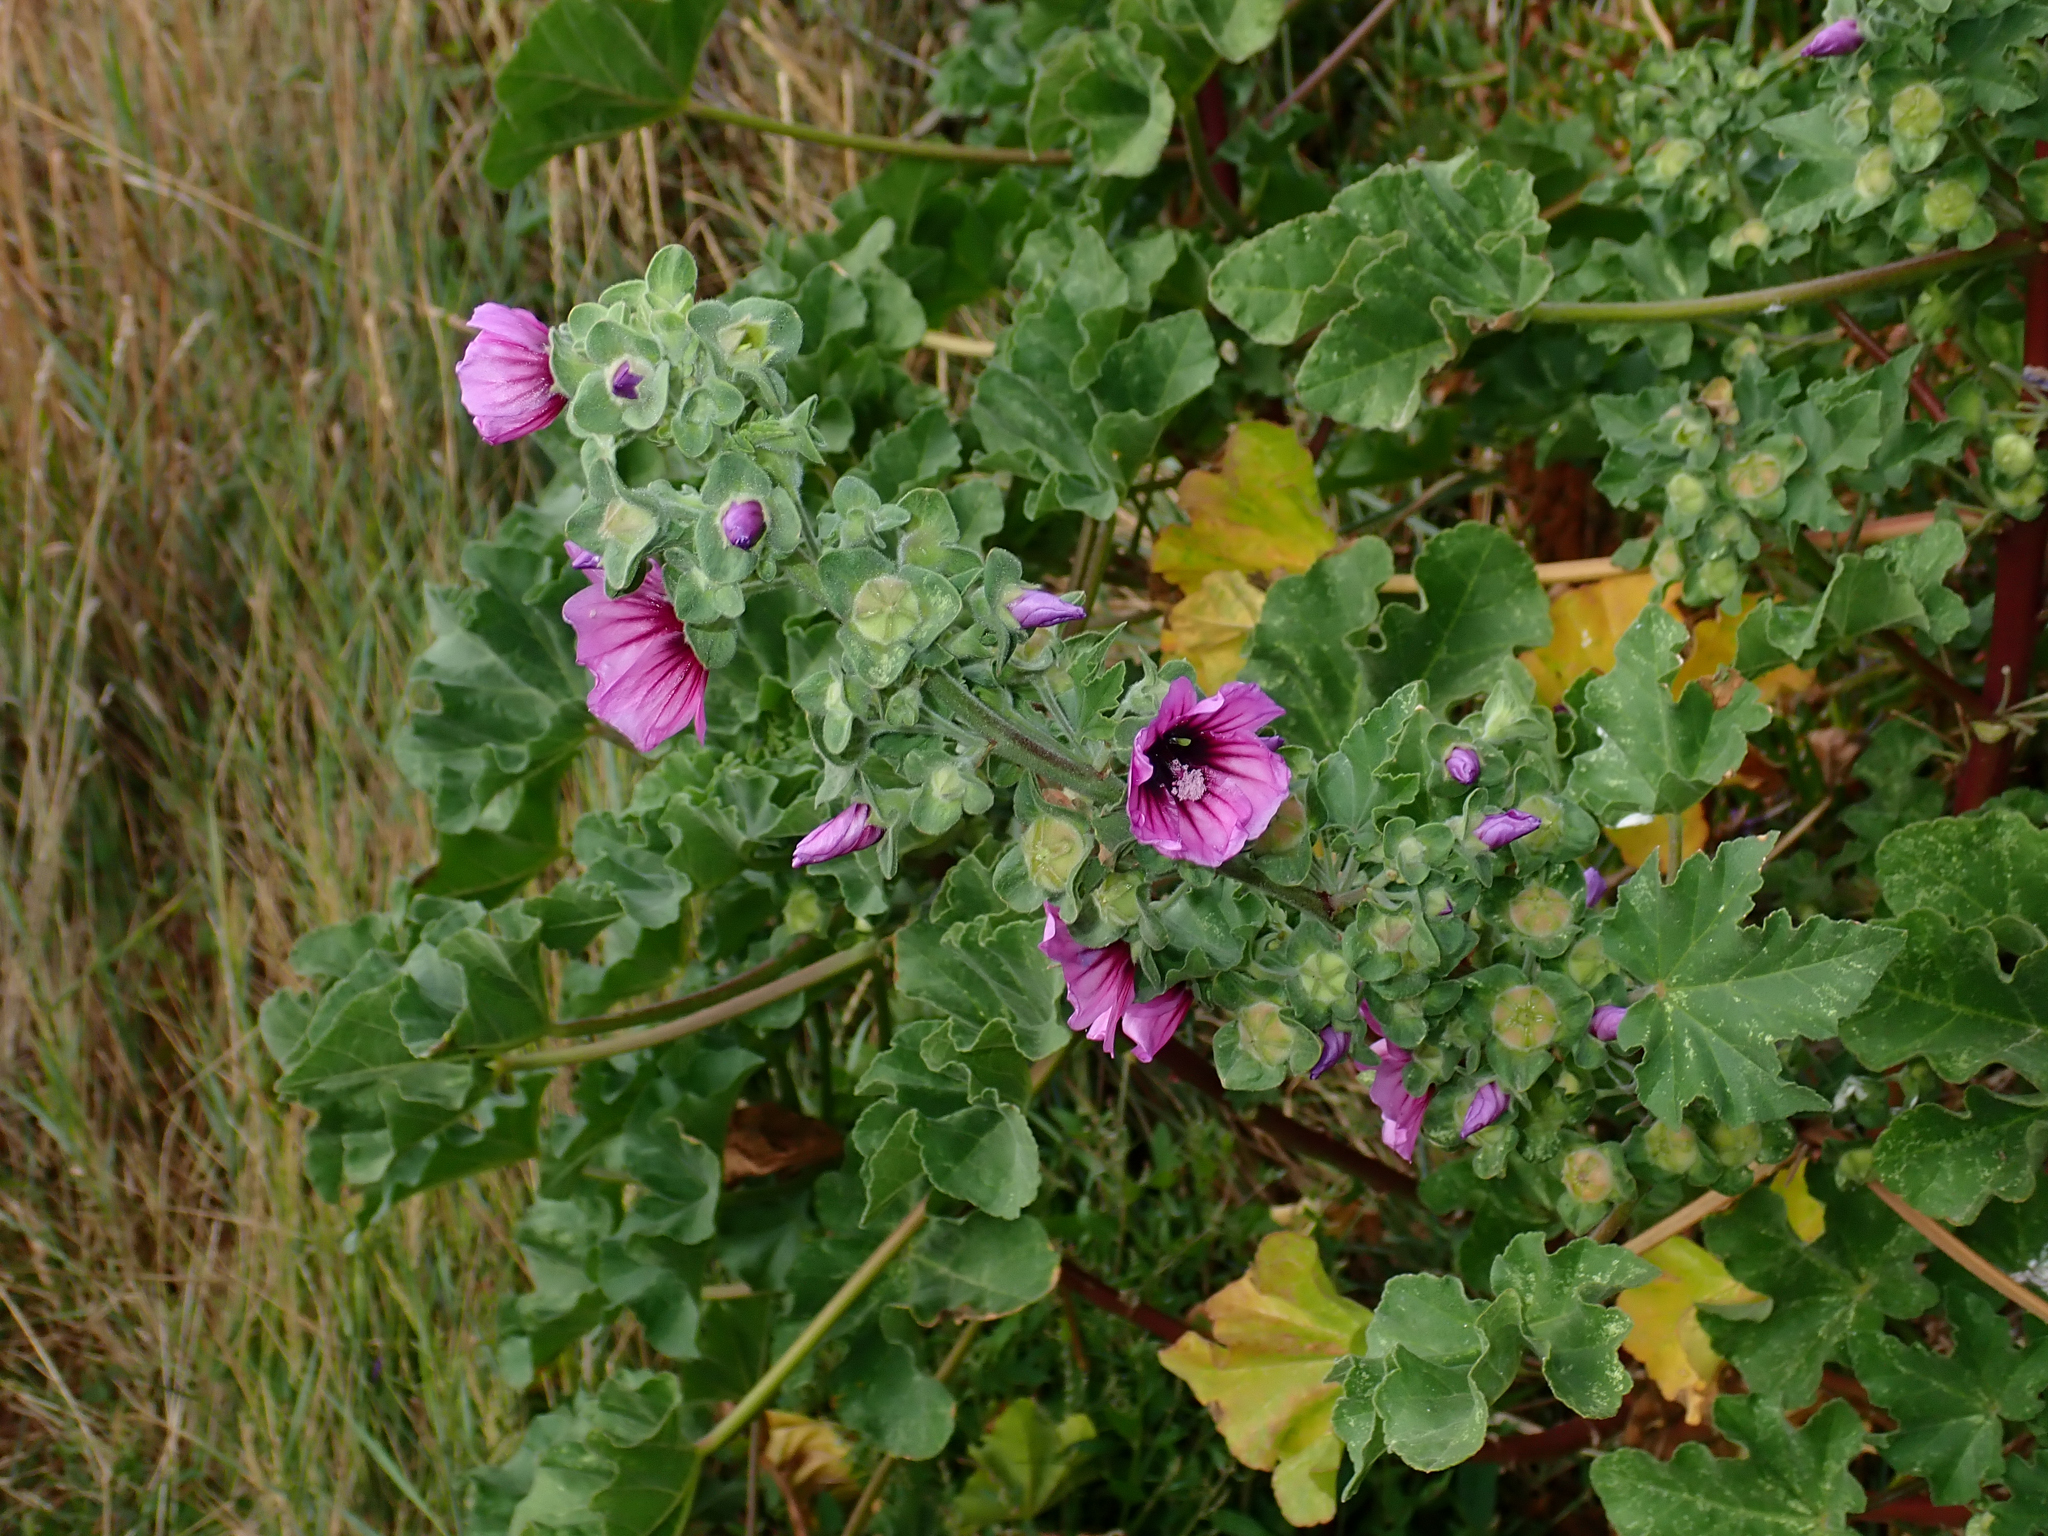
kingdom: Plantae
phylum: Tracheophyta
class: Magnoliopsida
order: Malvales
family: Malvaceae
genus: Malva
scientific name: Malva arborea
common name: Tree mallow
